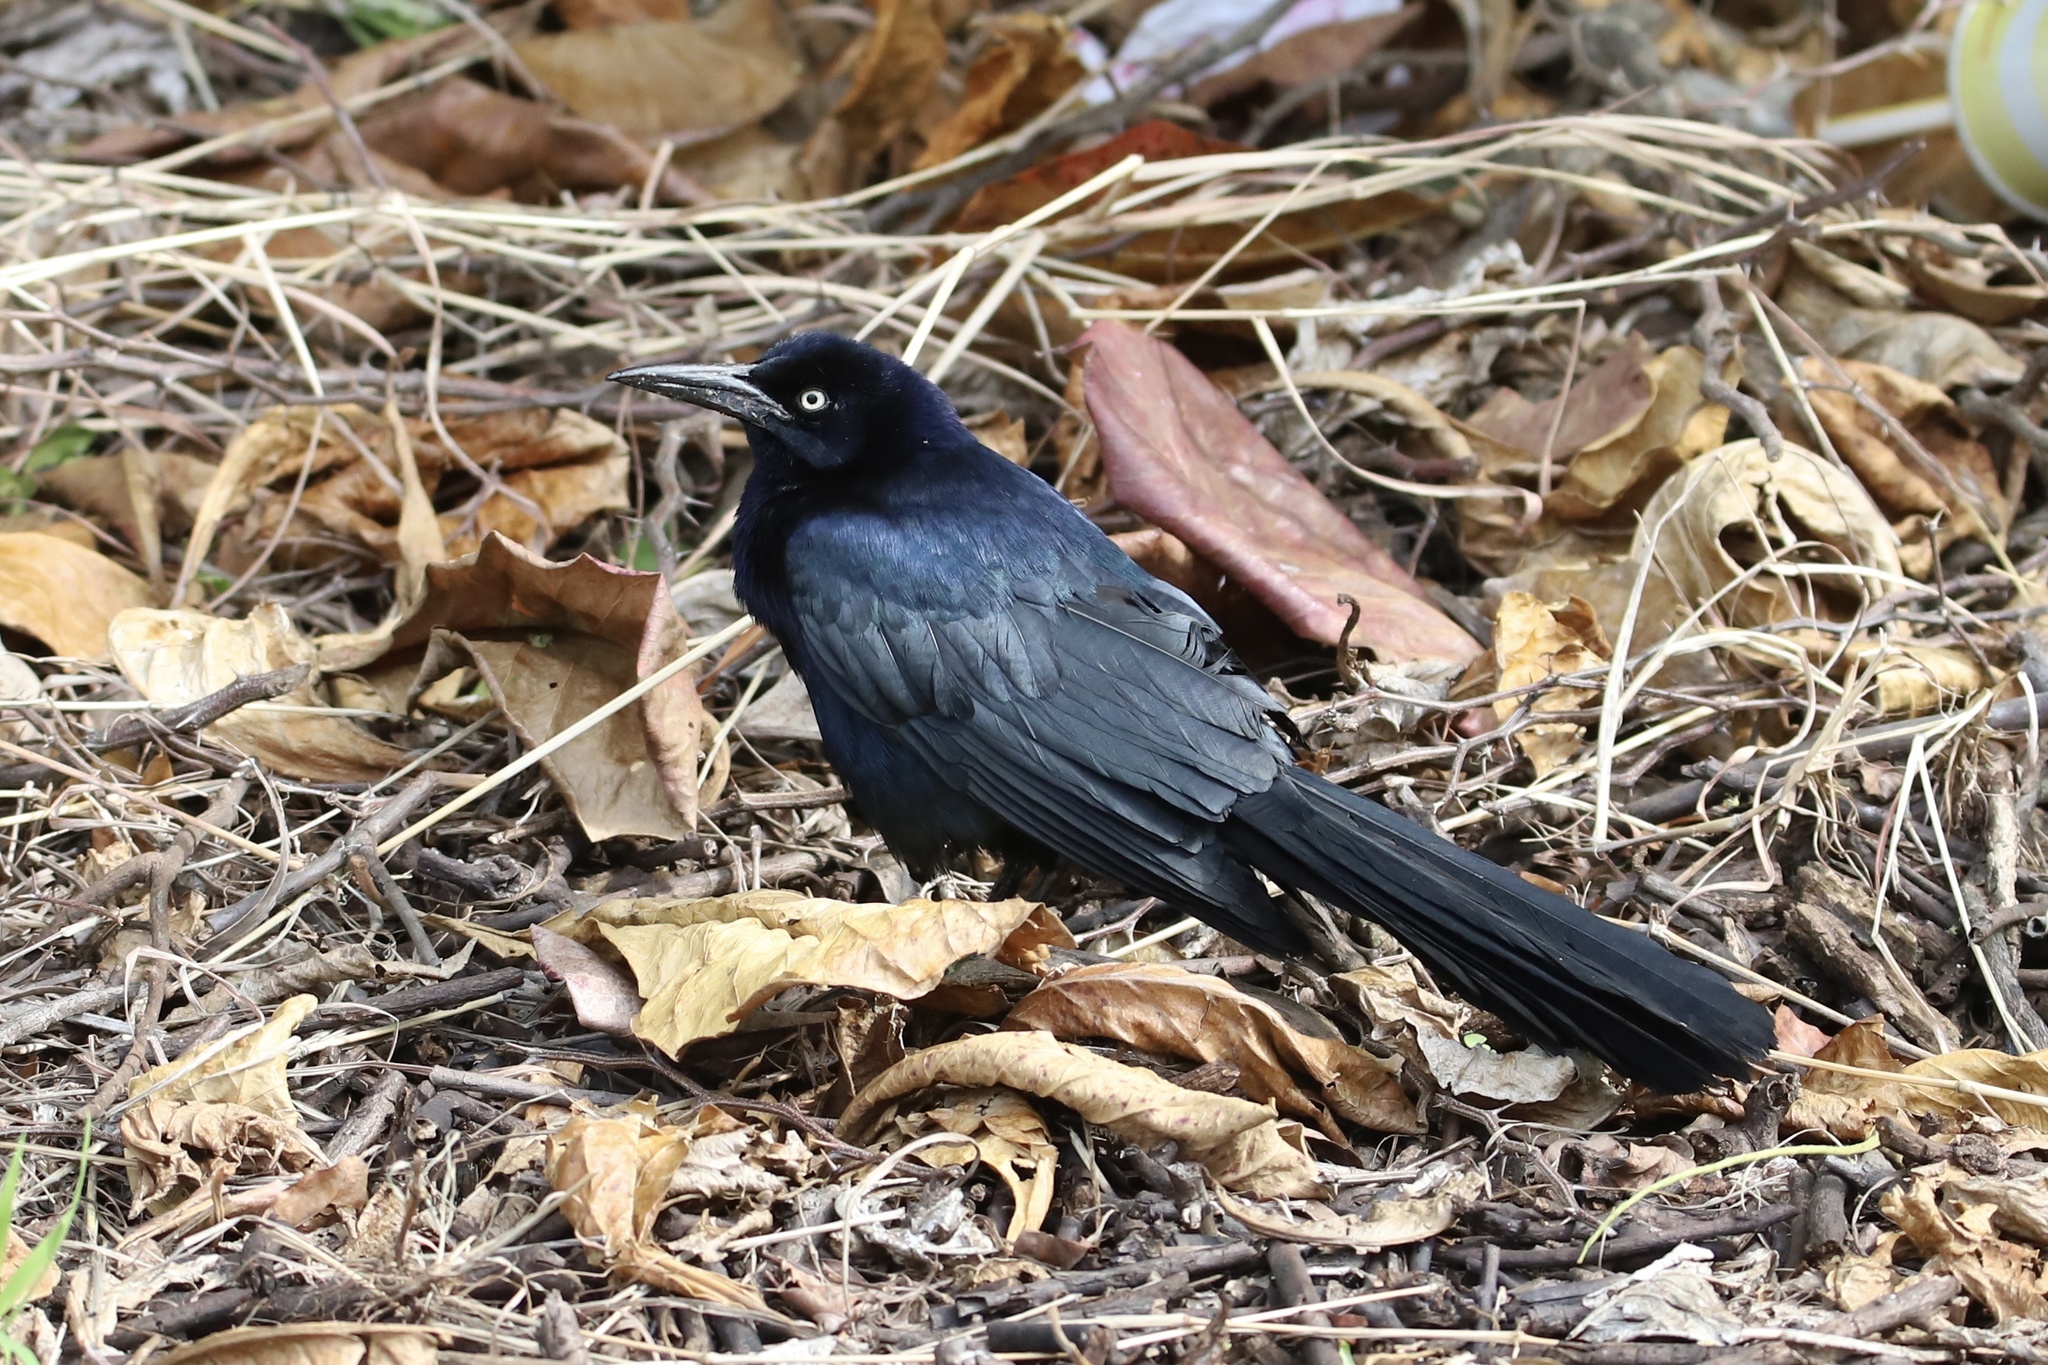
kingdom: Animalia
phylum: Chordata
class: Aves
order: Passeriformes
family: Icteridae
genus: Quiscalus
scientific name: Quiscalus mexicanus
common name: Great-tailed grackle
